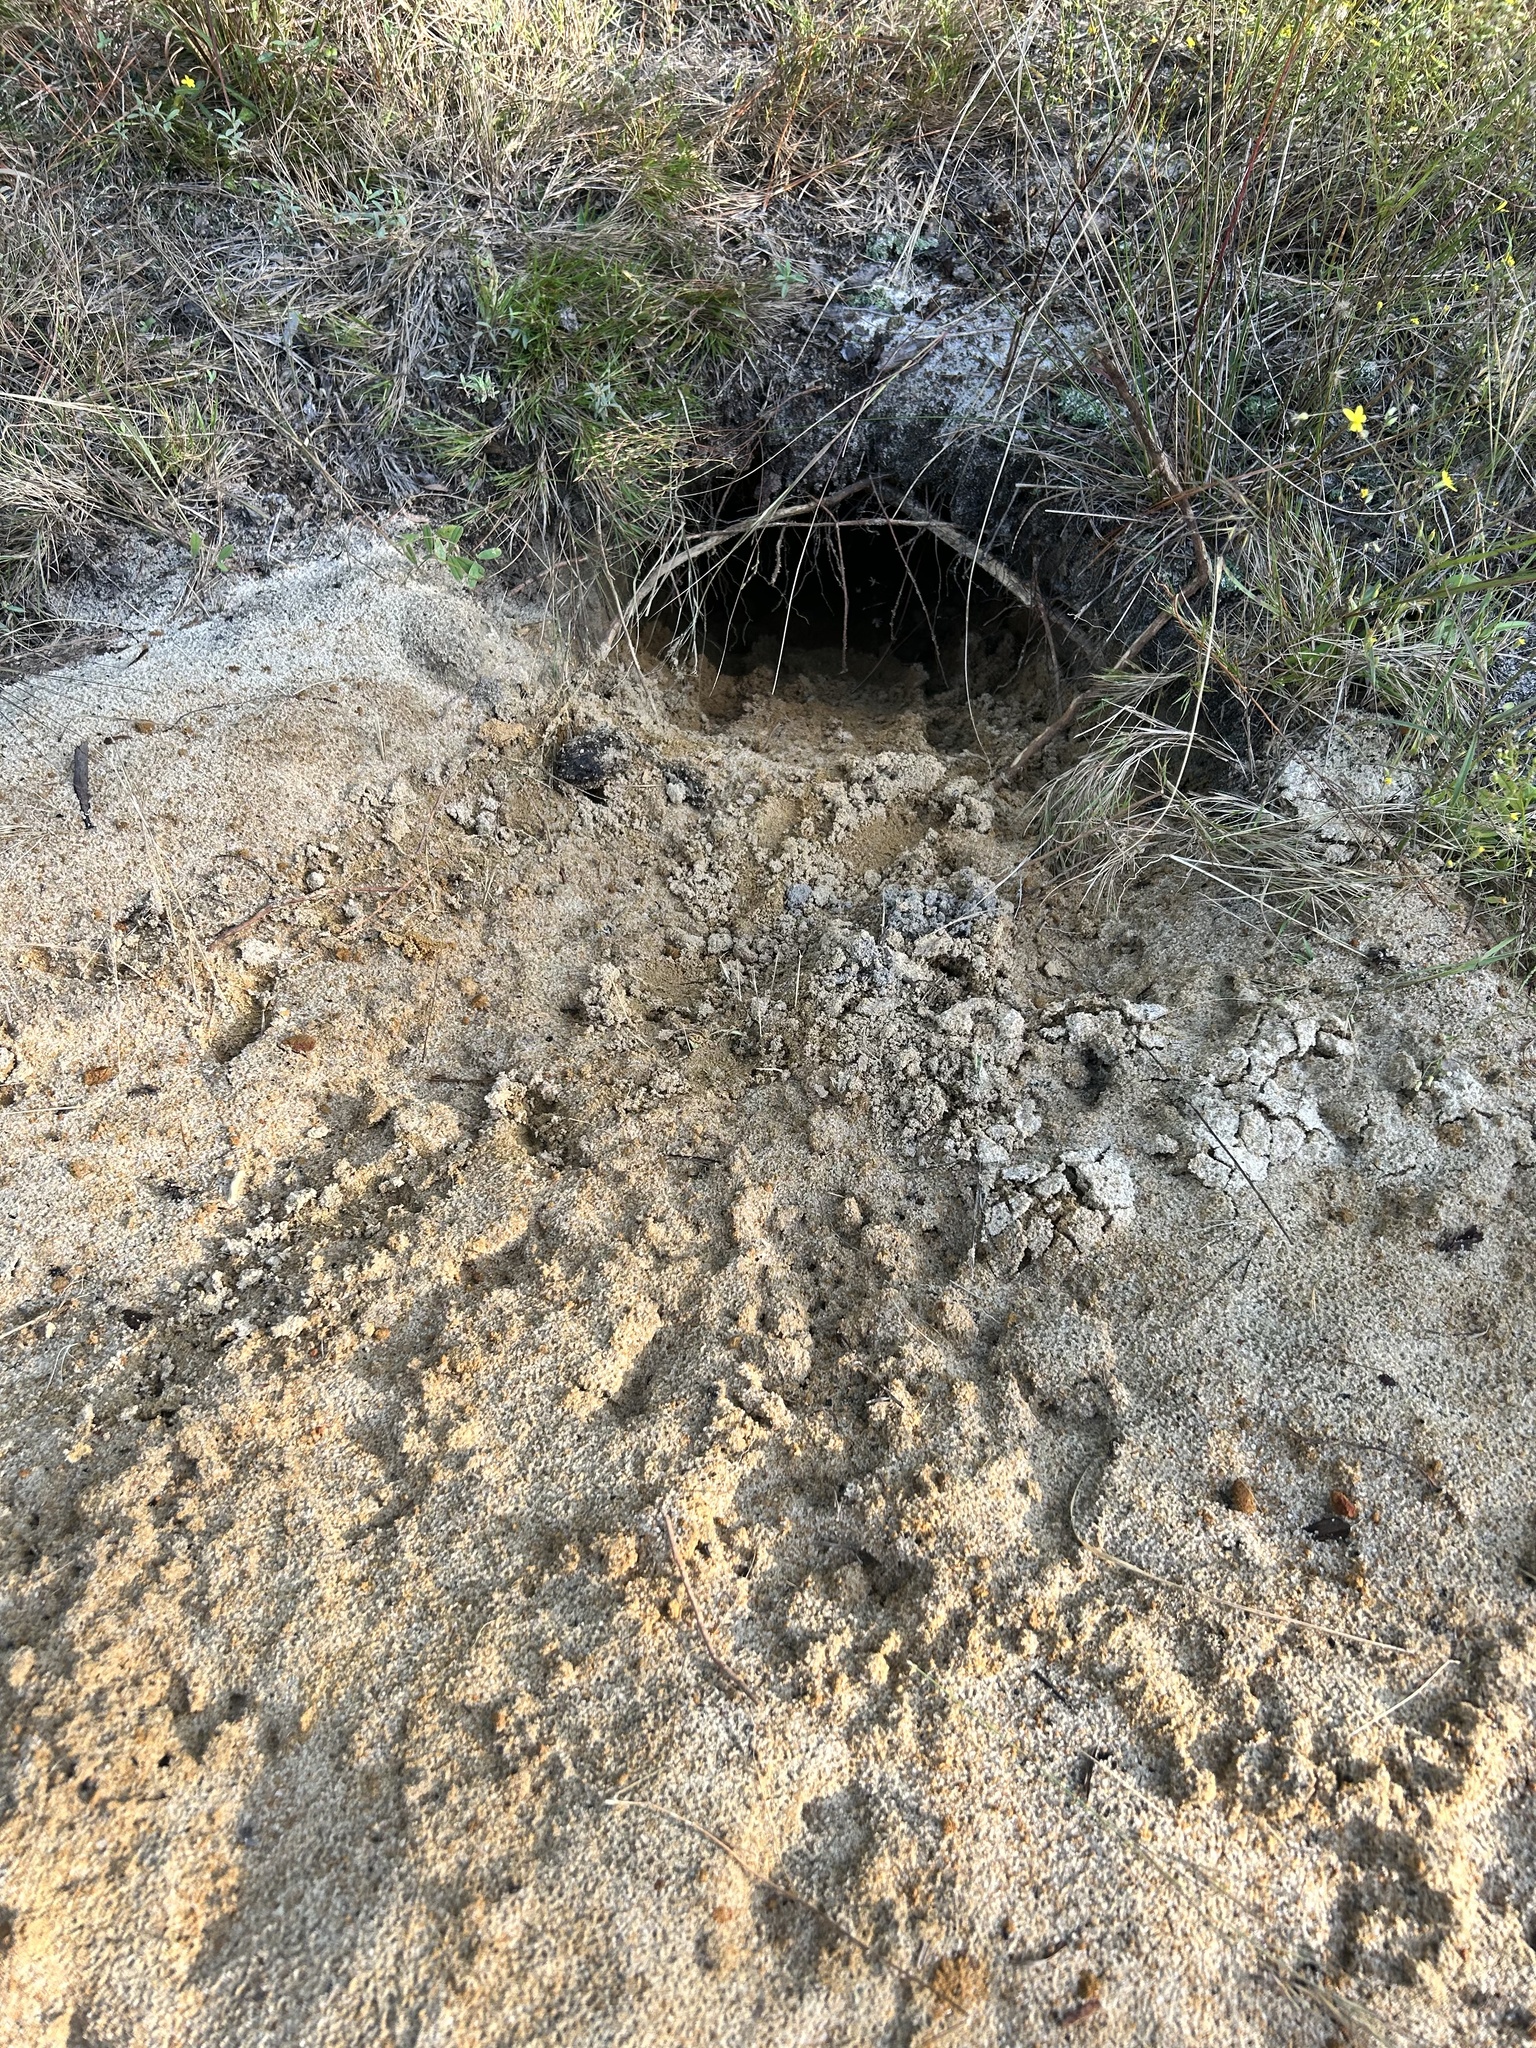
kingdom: Animalia
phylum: Chordata
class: Testudines
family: Testudinidae
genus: Gopherus
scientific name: Gopherus polyphemus
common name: Florida gopher tortoise
